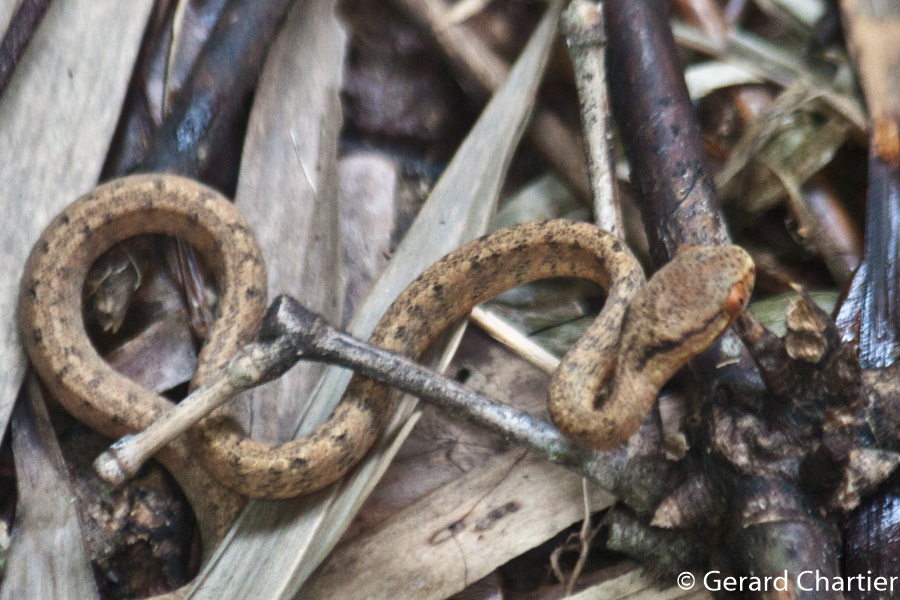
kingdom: Animalia
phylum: Chordata
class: Squamata
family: Pareidae
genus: Pareas
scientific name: Pareas carinatus
